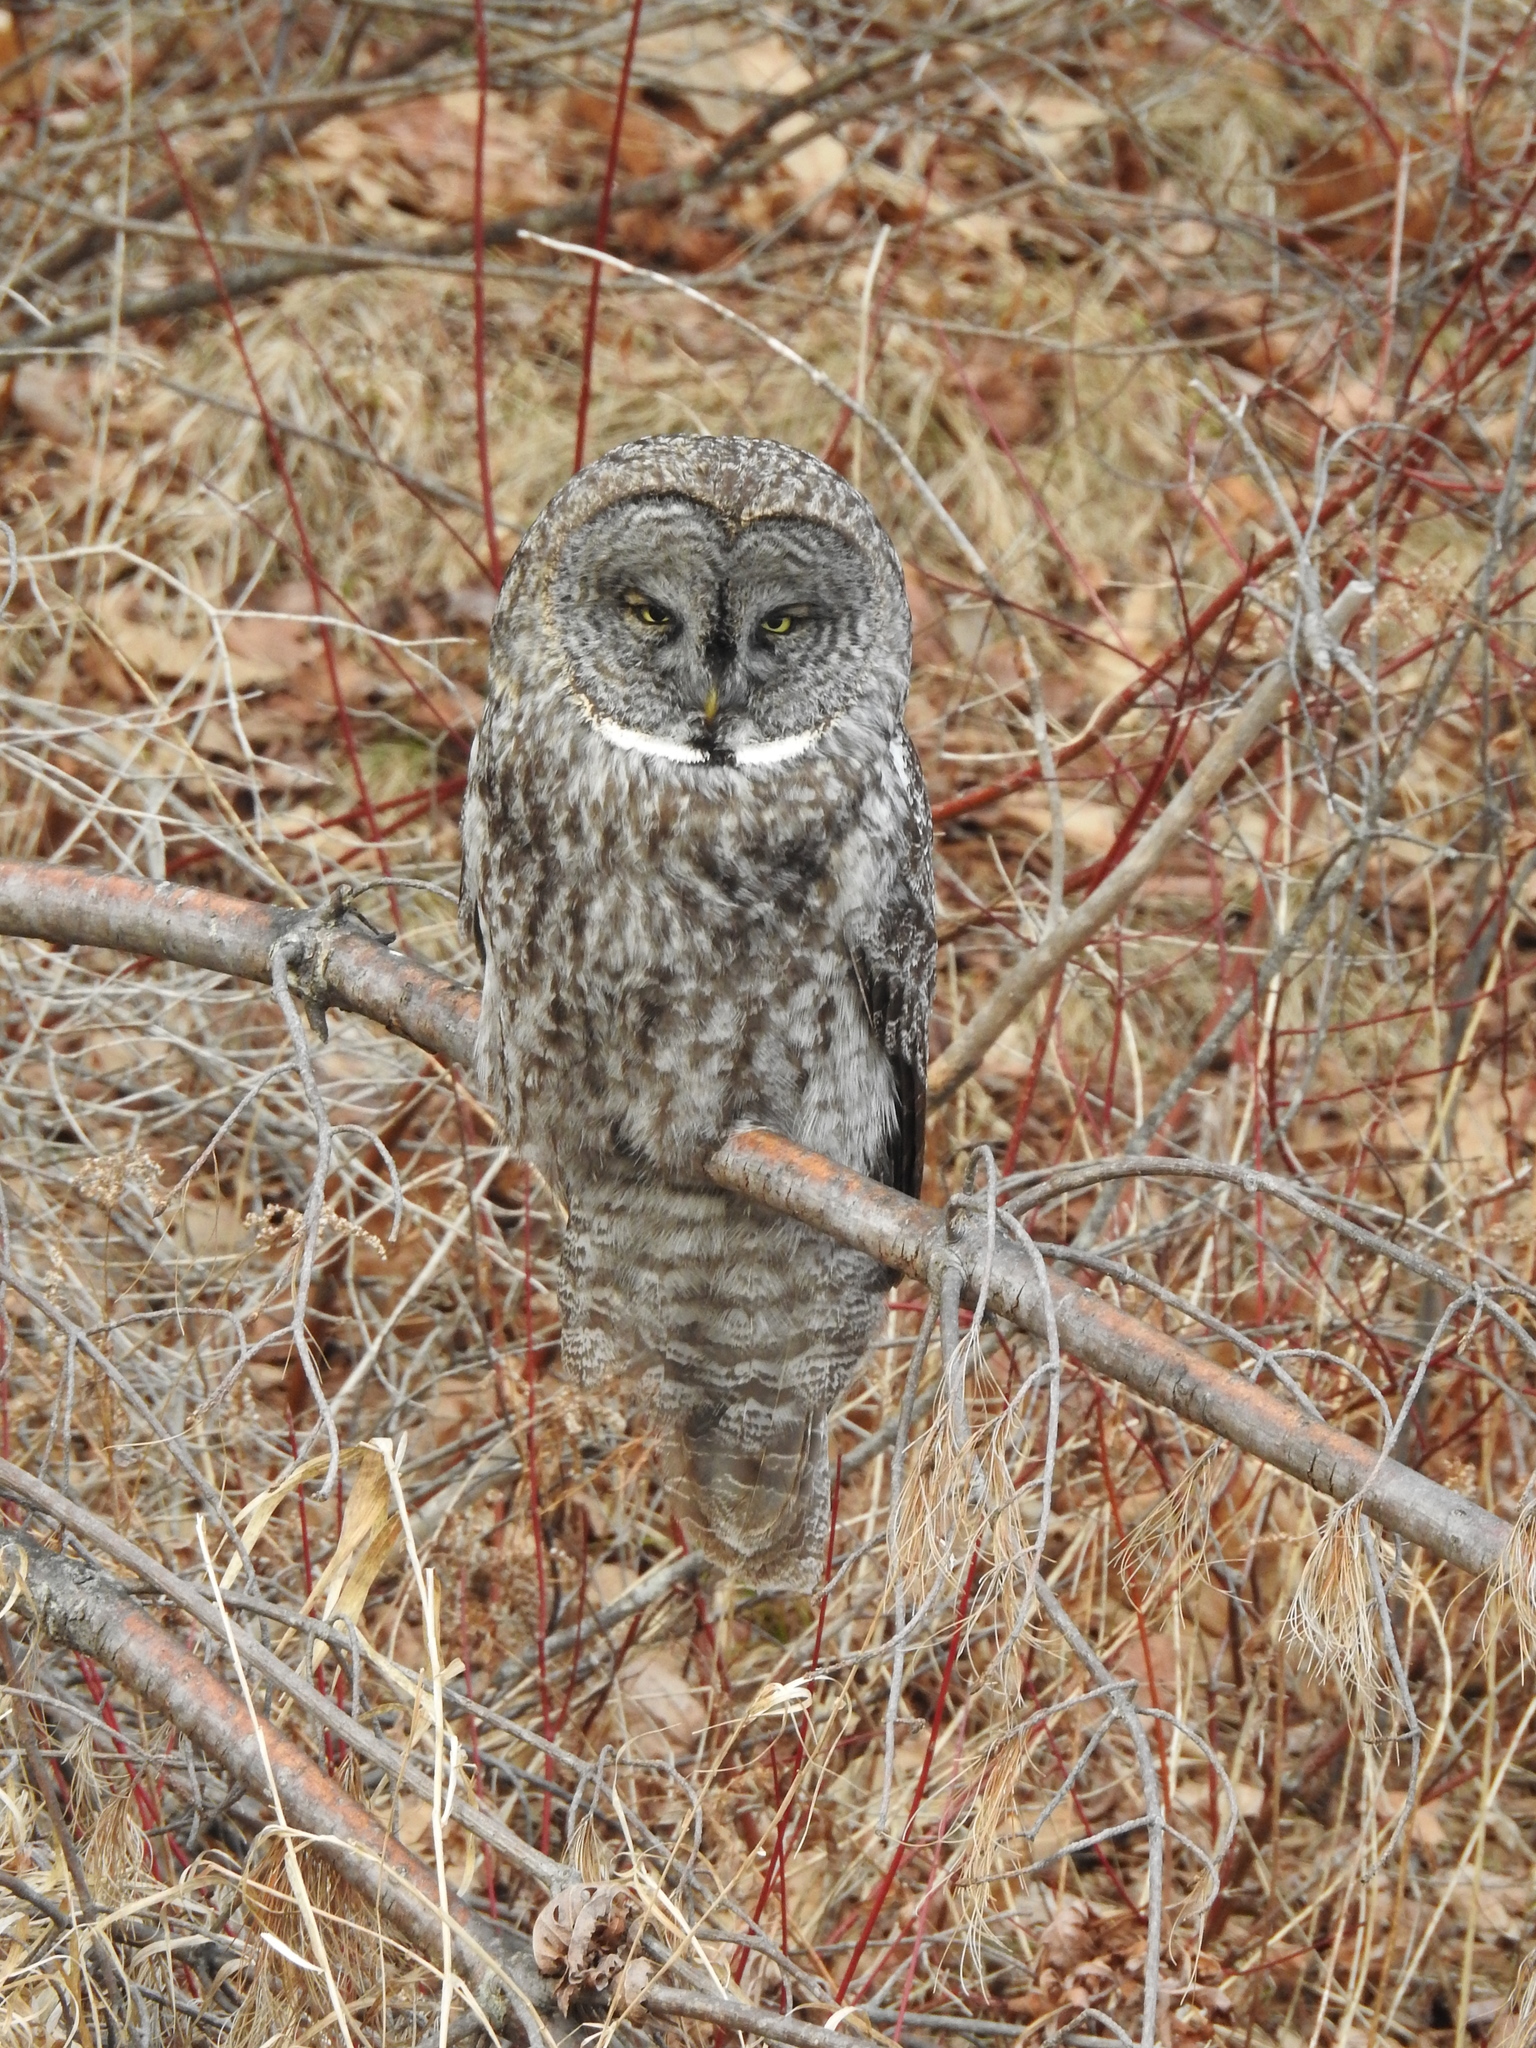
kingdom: Animalia
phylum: Chordata
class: Aves
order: Strigiformes
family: Strigidae
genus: Strix
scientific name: Strix nebulosa
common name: Great grey owl
